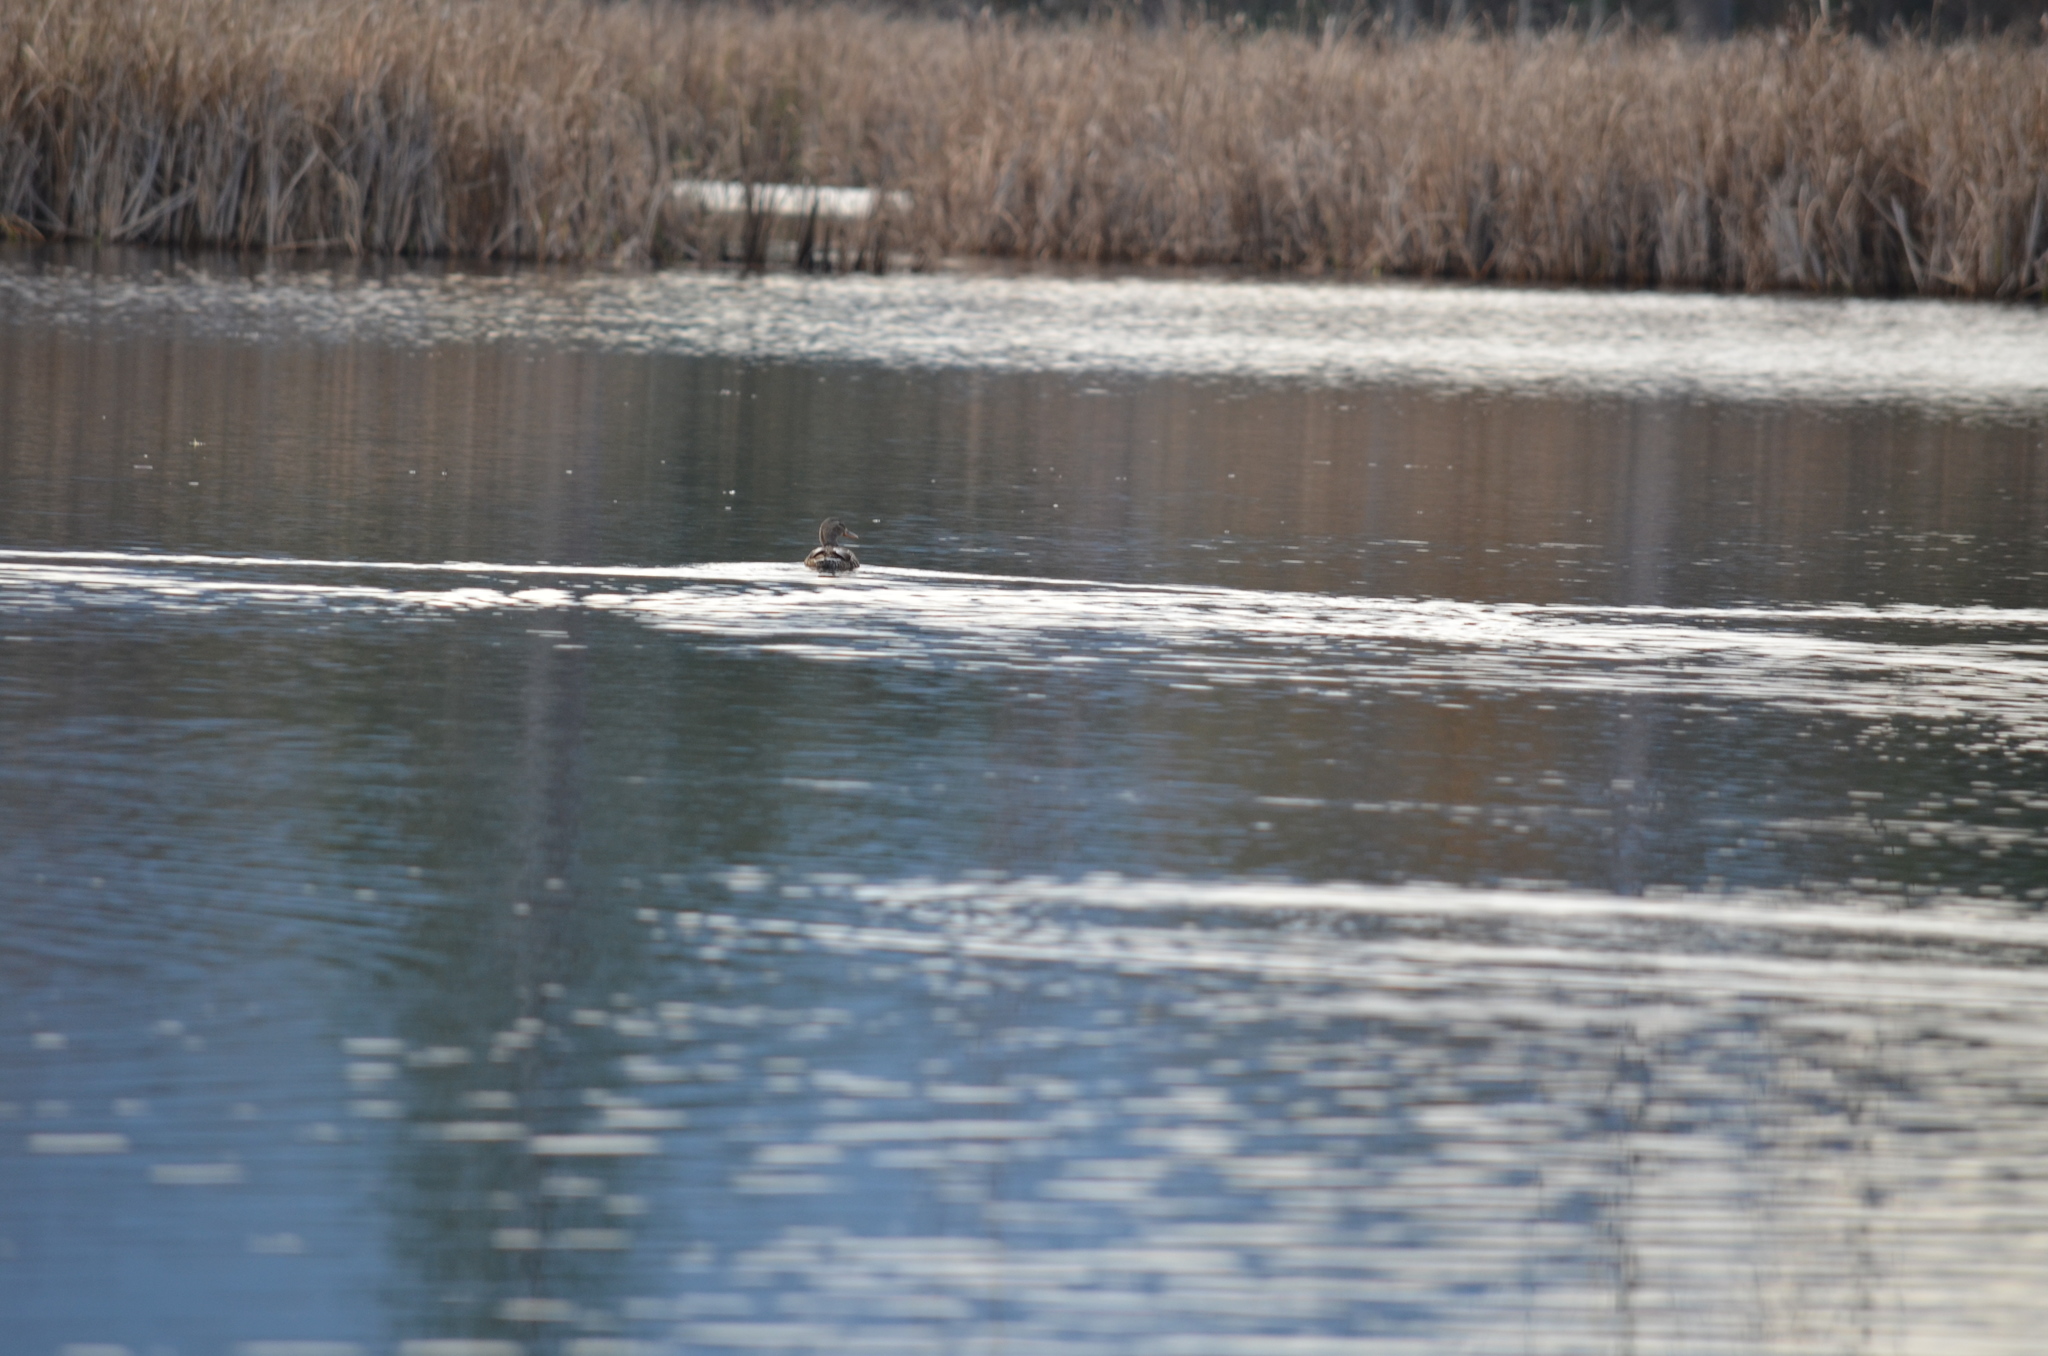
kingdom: Animalia
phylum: Chordata
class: Aves
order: Anseriformes
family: Anatidae
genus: Anas
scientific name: Anas platyrhynchos
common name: Mallard
